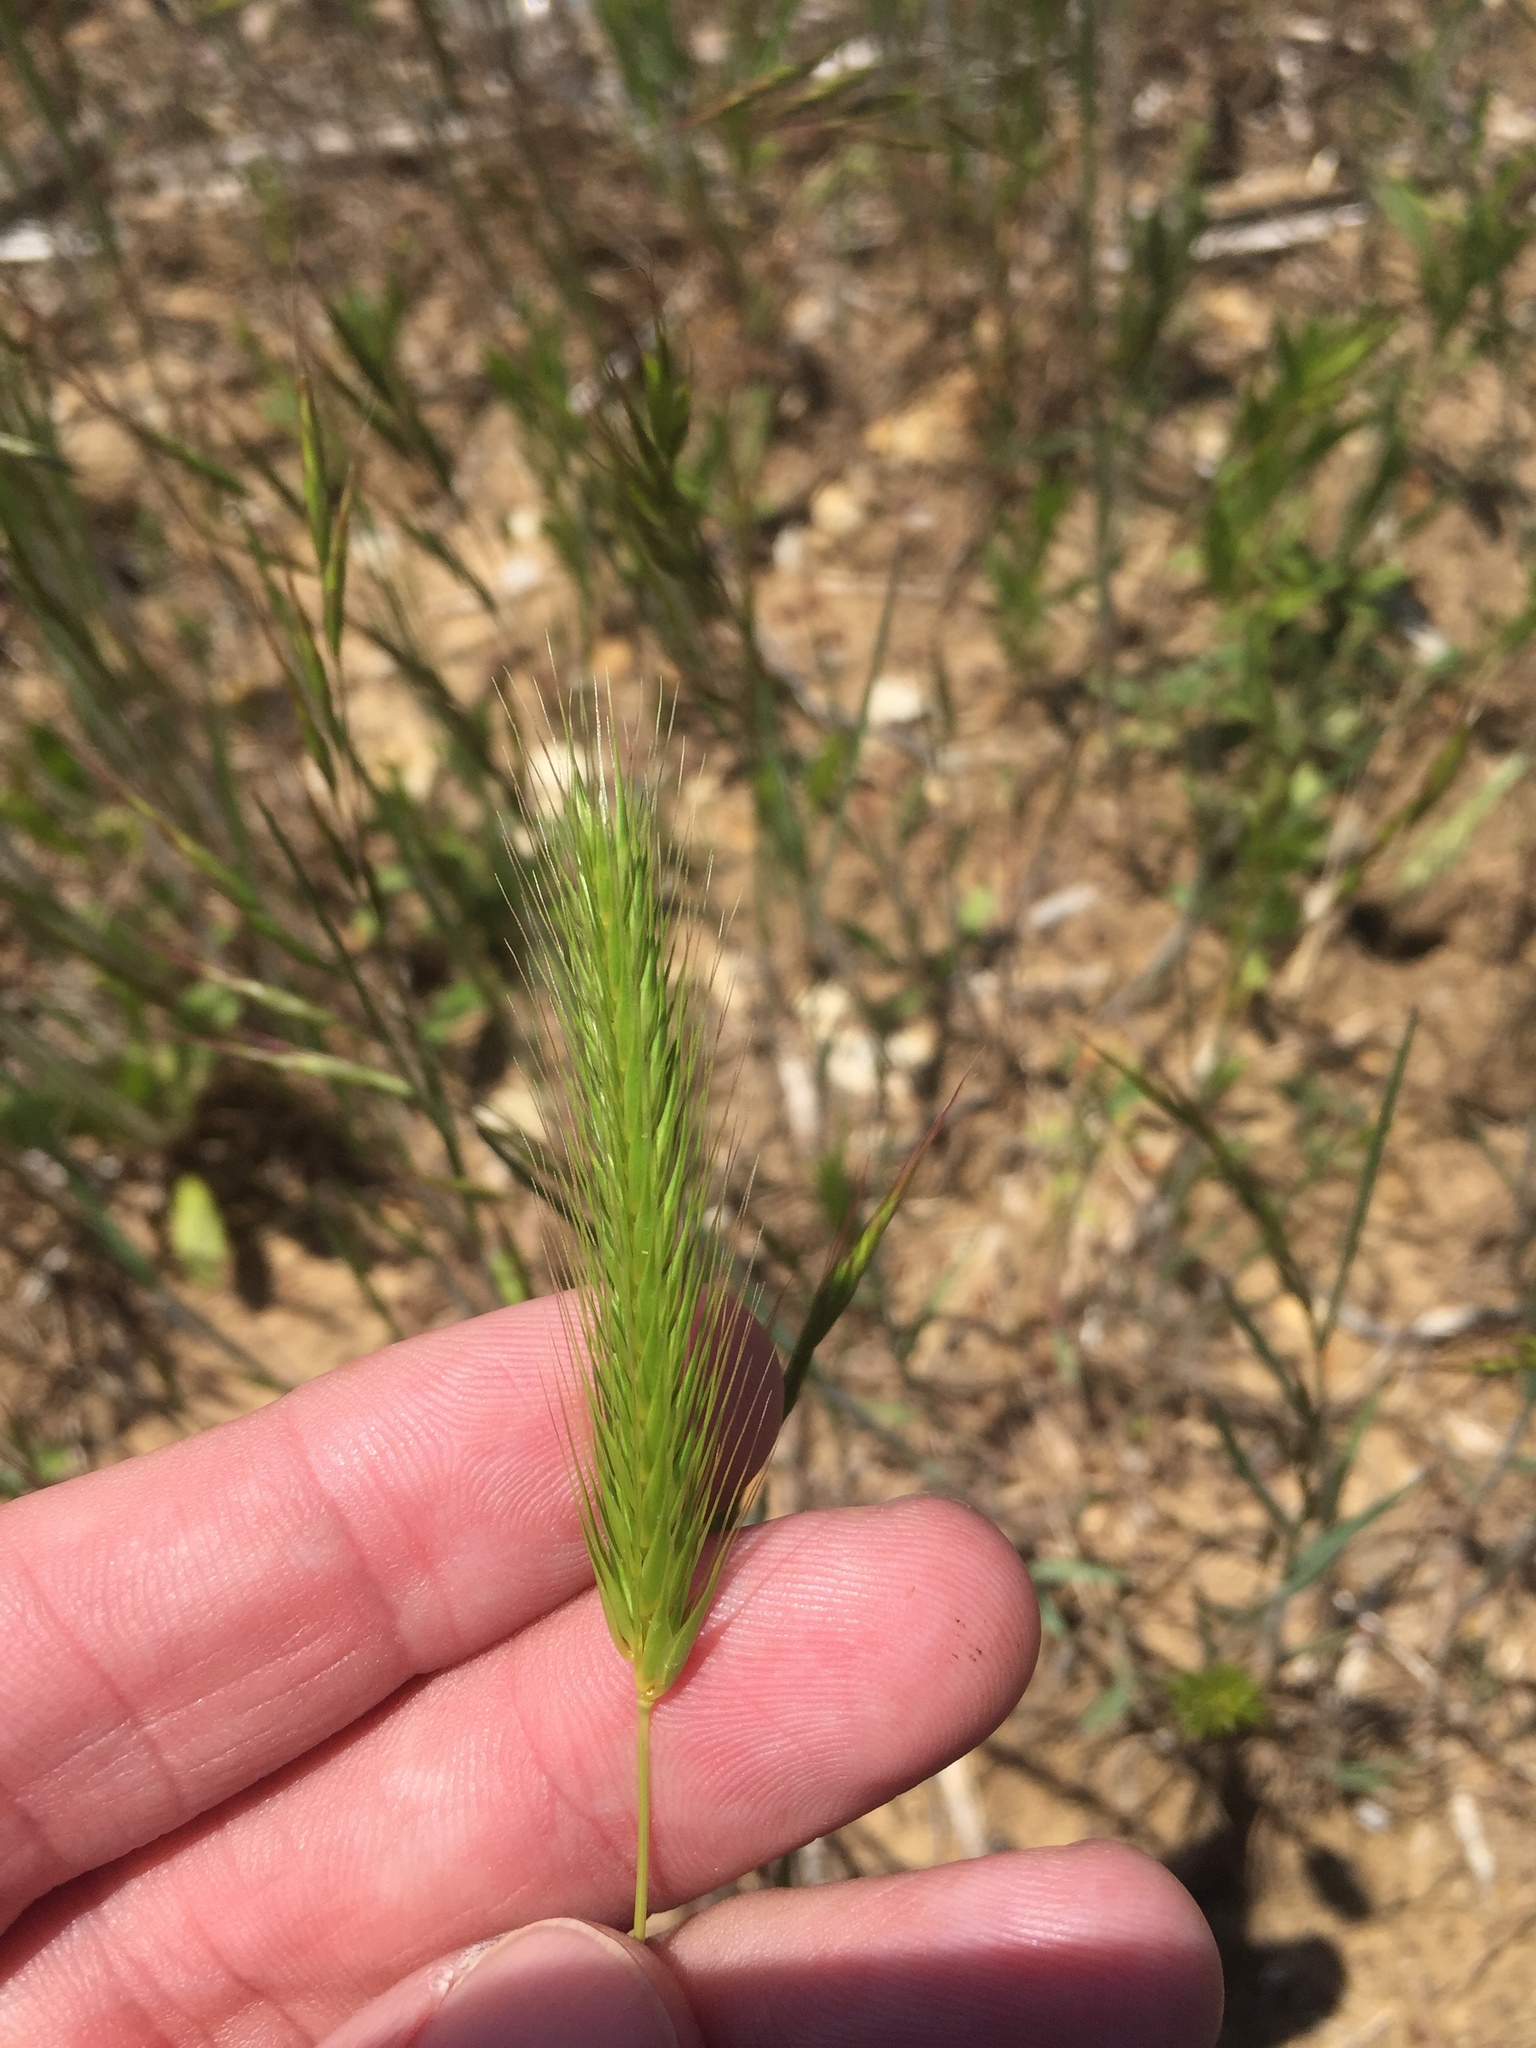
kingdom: Plantae
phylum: Tracheophyta
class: Liliopsida
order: Poales
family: Poaceae
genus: Hordeum
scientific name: Hordeum pusillum
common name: Little barley
